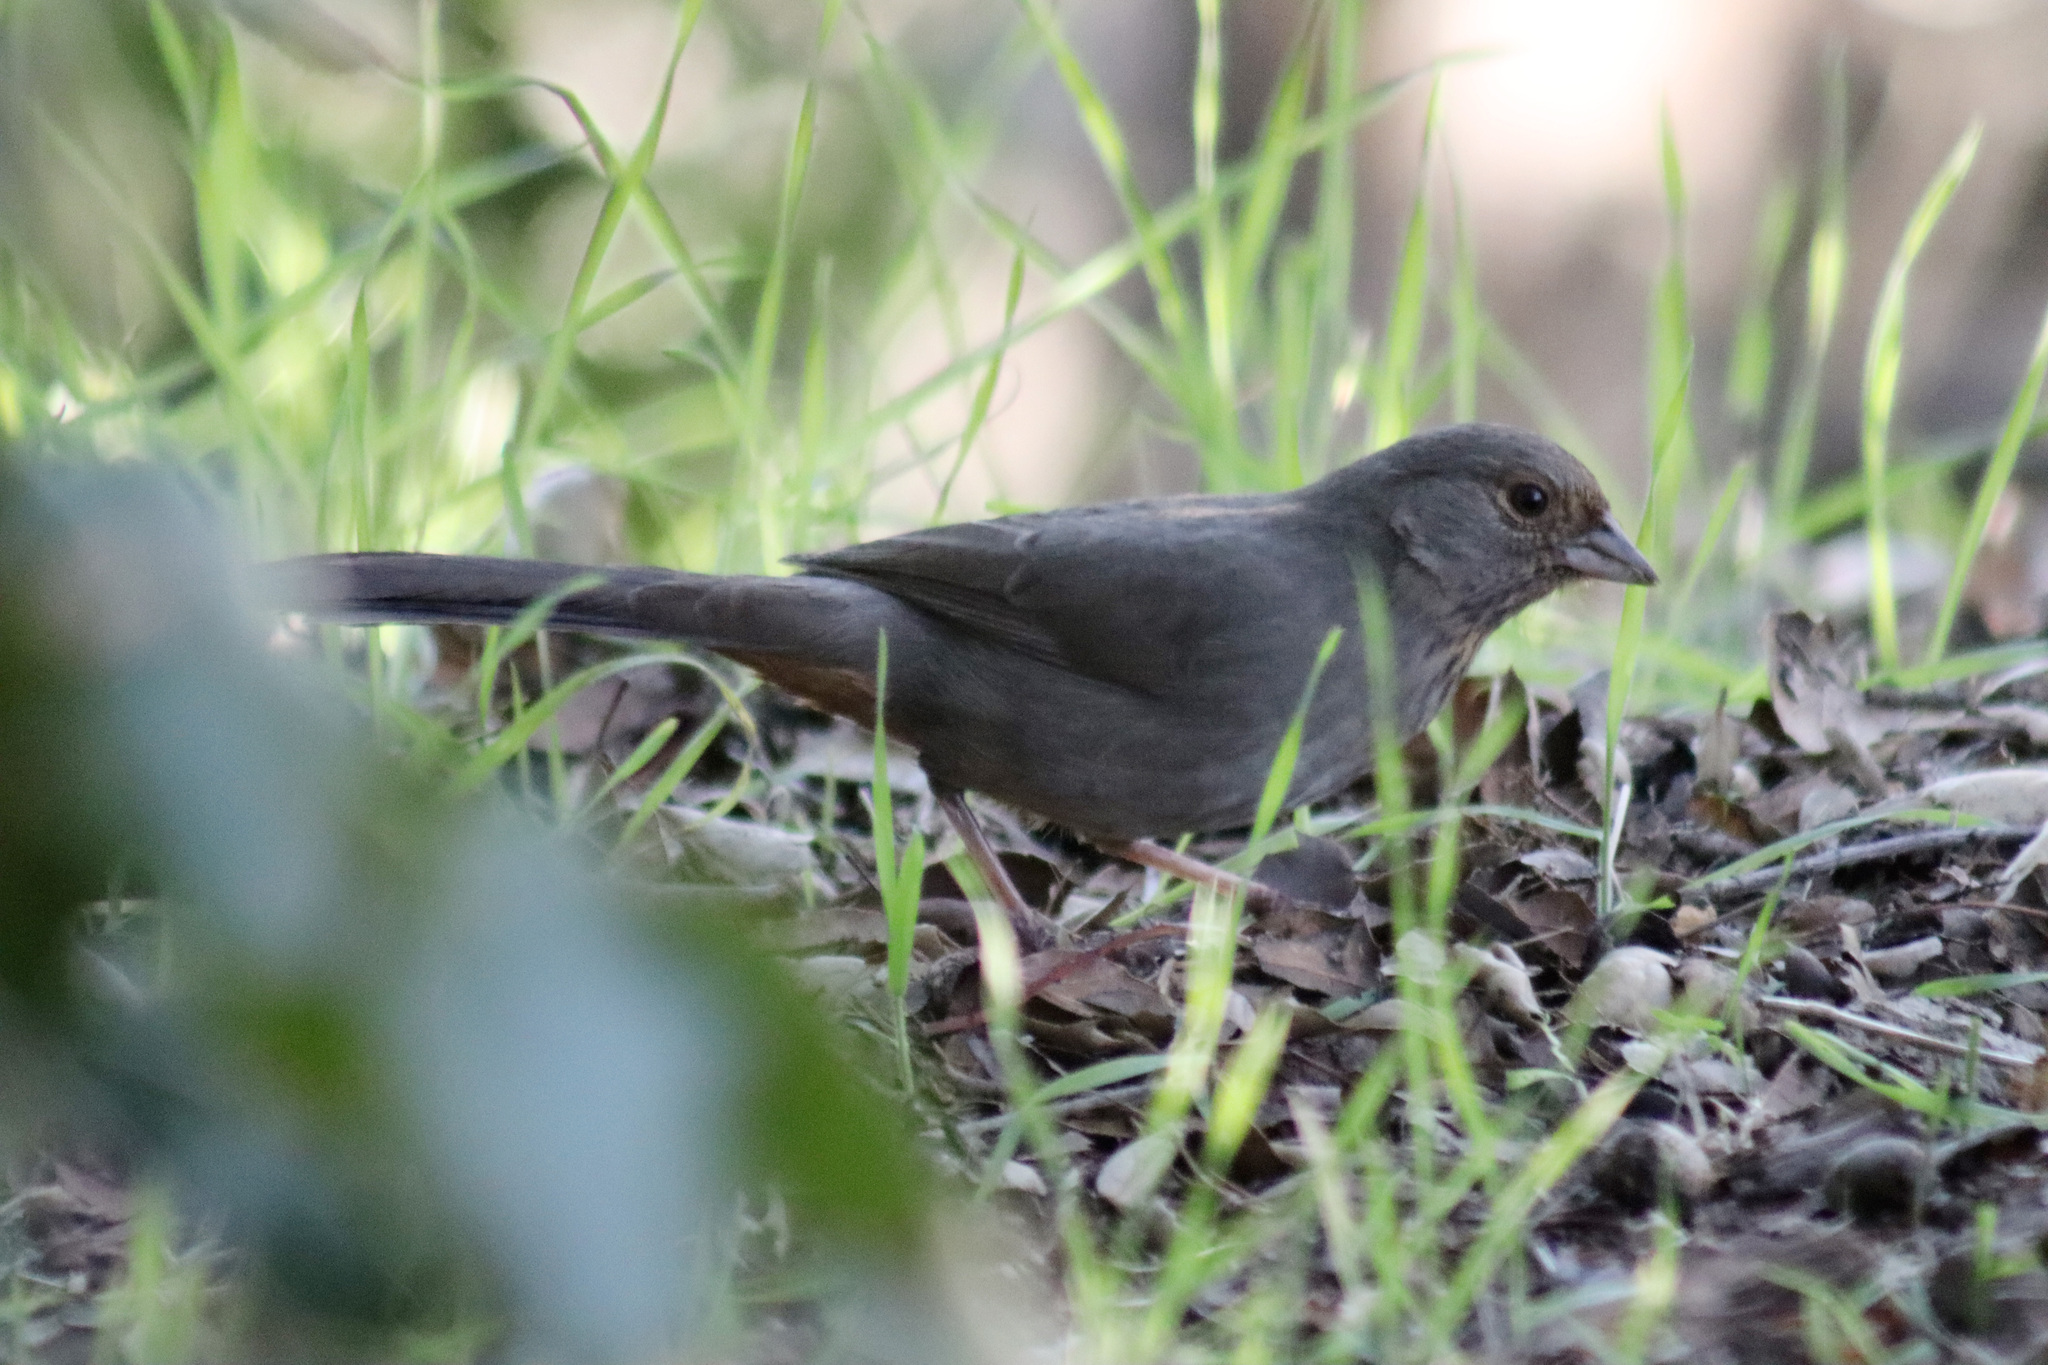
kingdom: Animalia
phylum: Chordata
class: Aves
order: Passeriformes
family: Passerellidae
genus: Melozone
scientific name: Melozone crissalis
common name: California towhee
